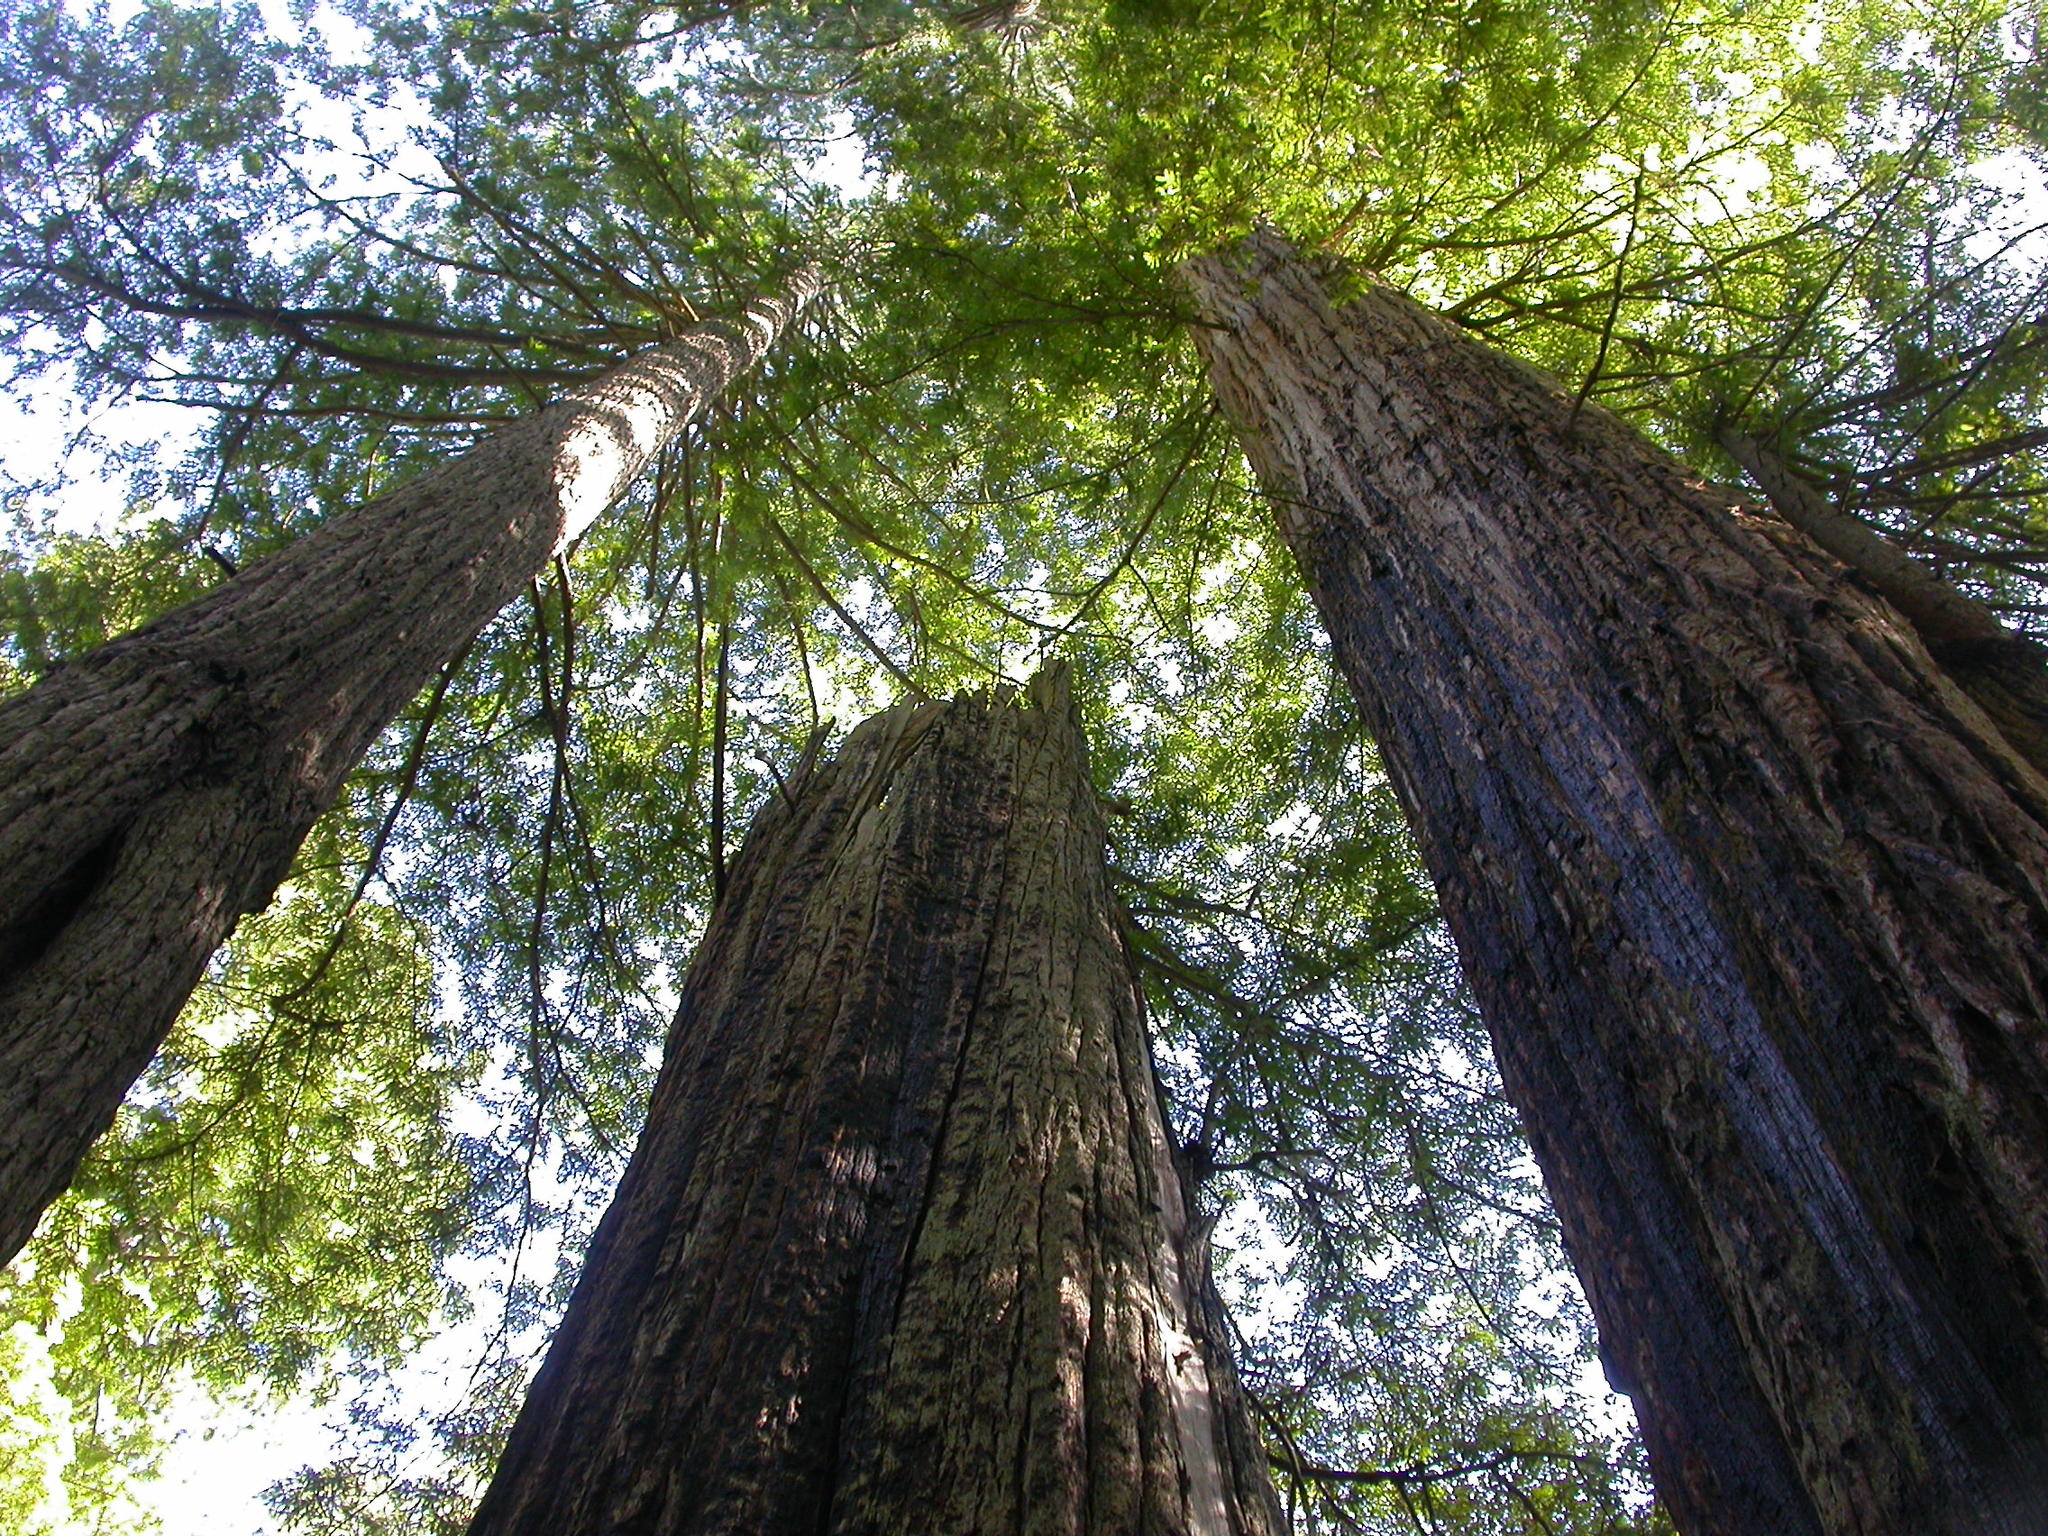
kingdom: Plantae
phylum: Tracheophyta
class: Pinopsida
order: Pinales
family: Cupressaceae
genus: Sequoia
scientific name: Sequoia sempervirens
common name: Coast redwood
